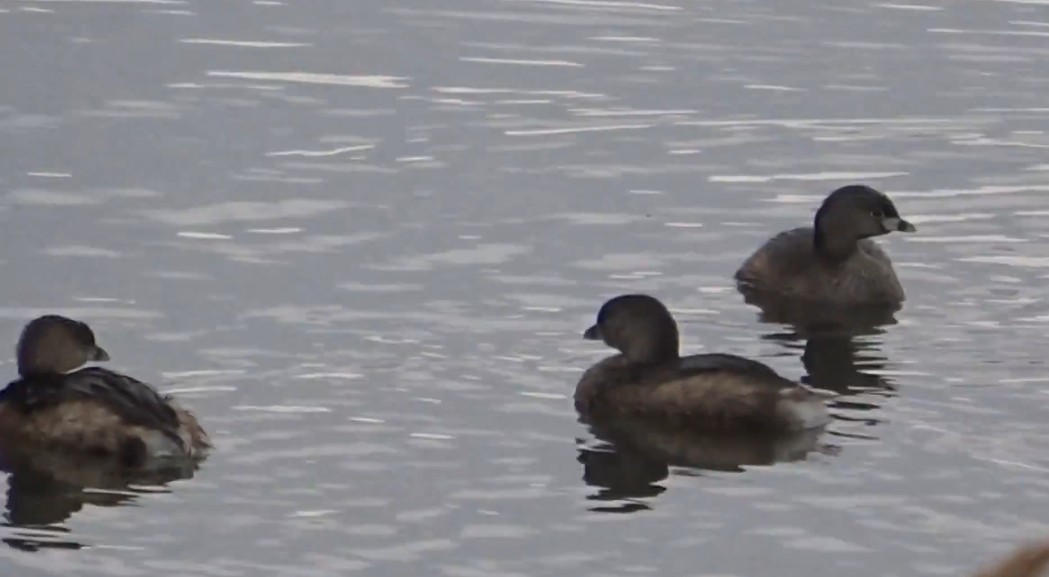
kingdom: Animalia
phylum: Chordata
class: Aves
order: Podicipediformes
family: Podicipedidae
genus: Podilymbus
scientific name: Podilymbus podiceps
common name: Pied-billed grebe
